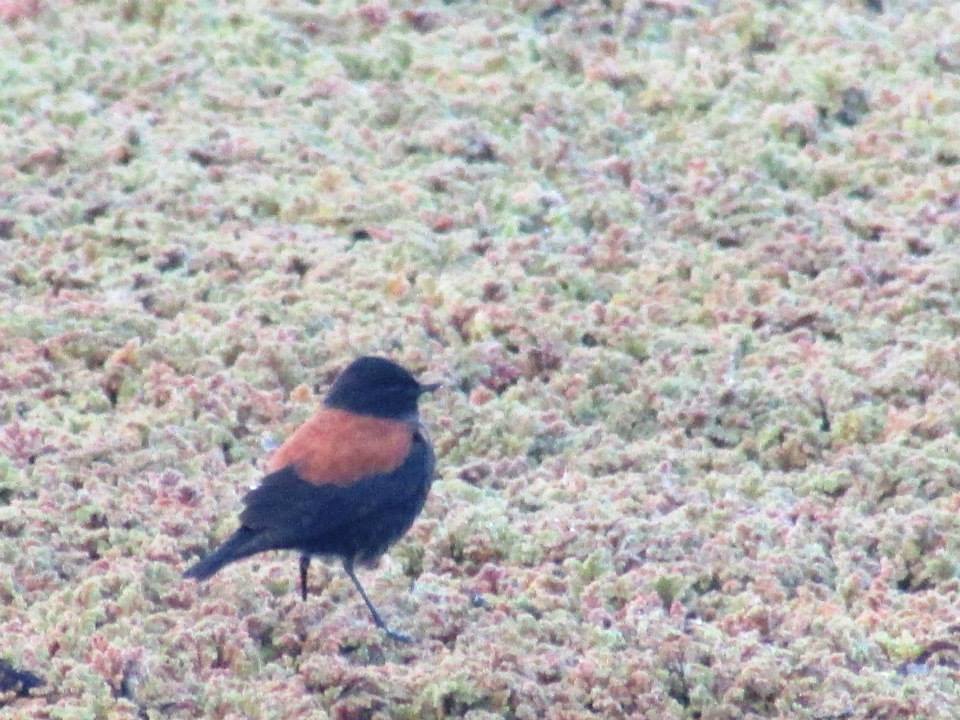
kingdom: Animalia
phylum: Chordata
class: Aves
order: Passeriformes
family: Tyrannidae
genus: Lessonia
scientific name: Lessonia rufa
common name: Austral negrito
